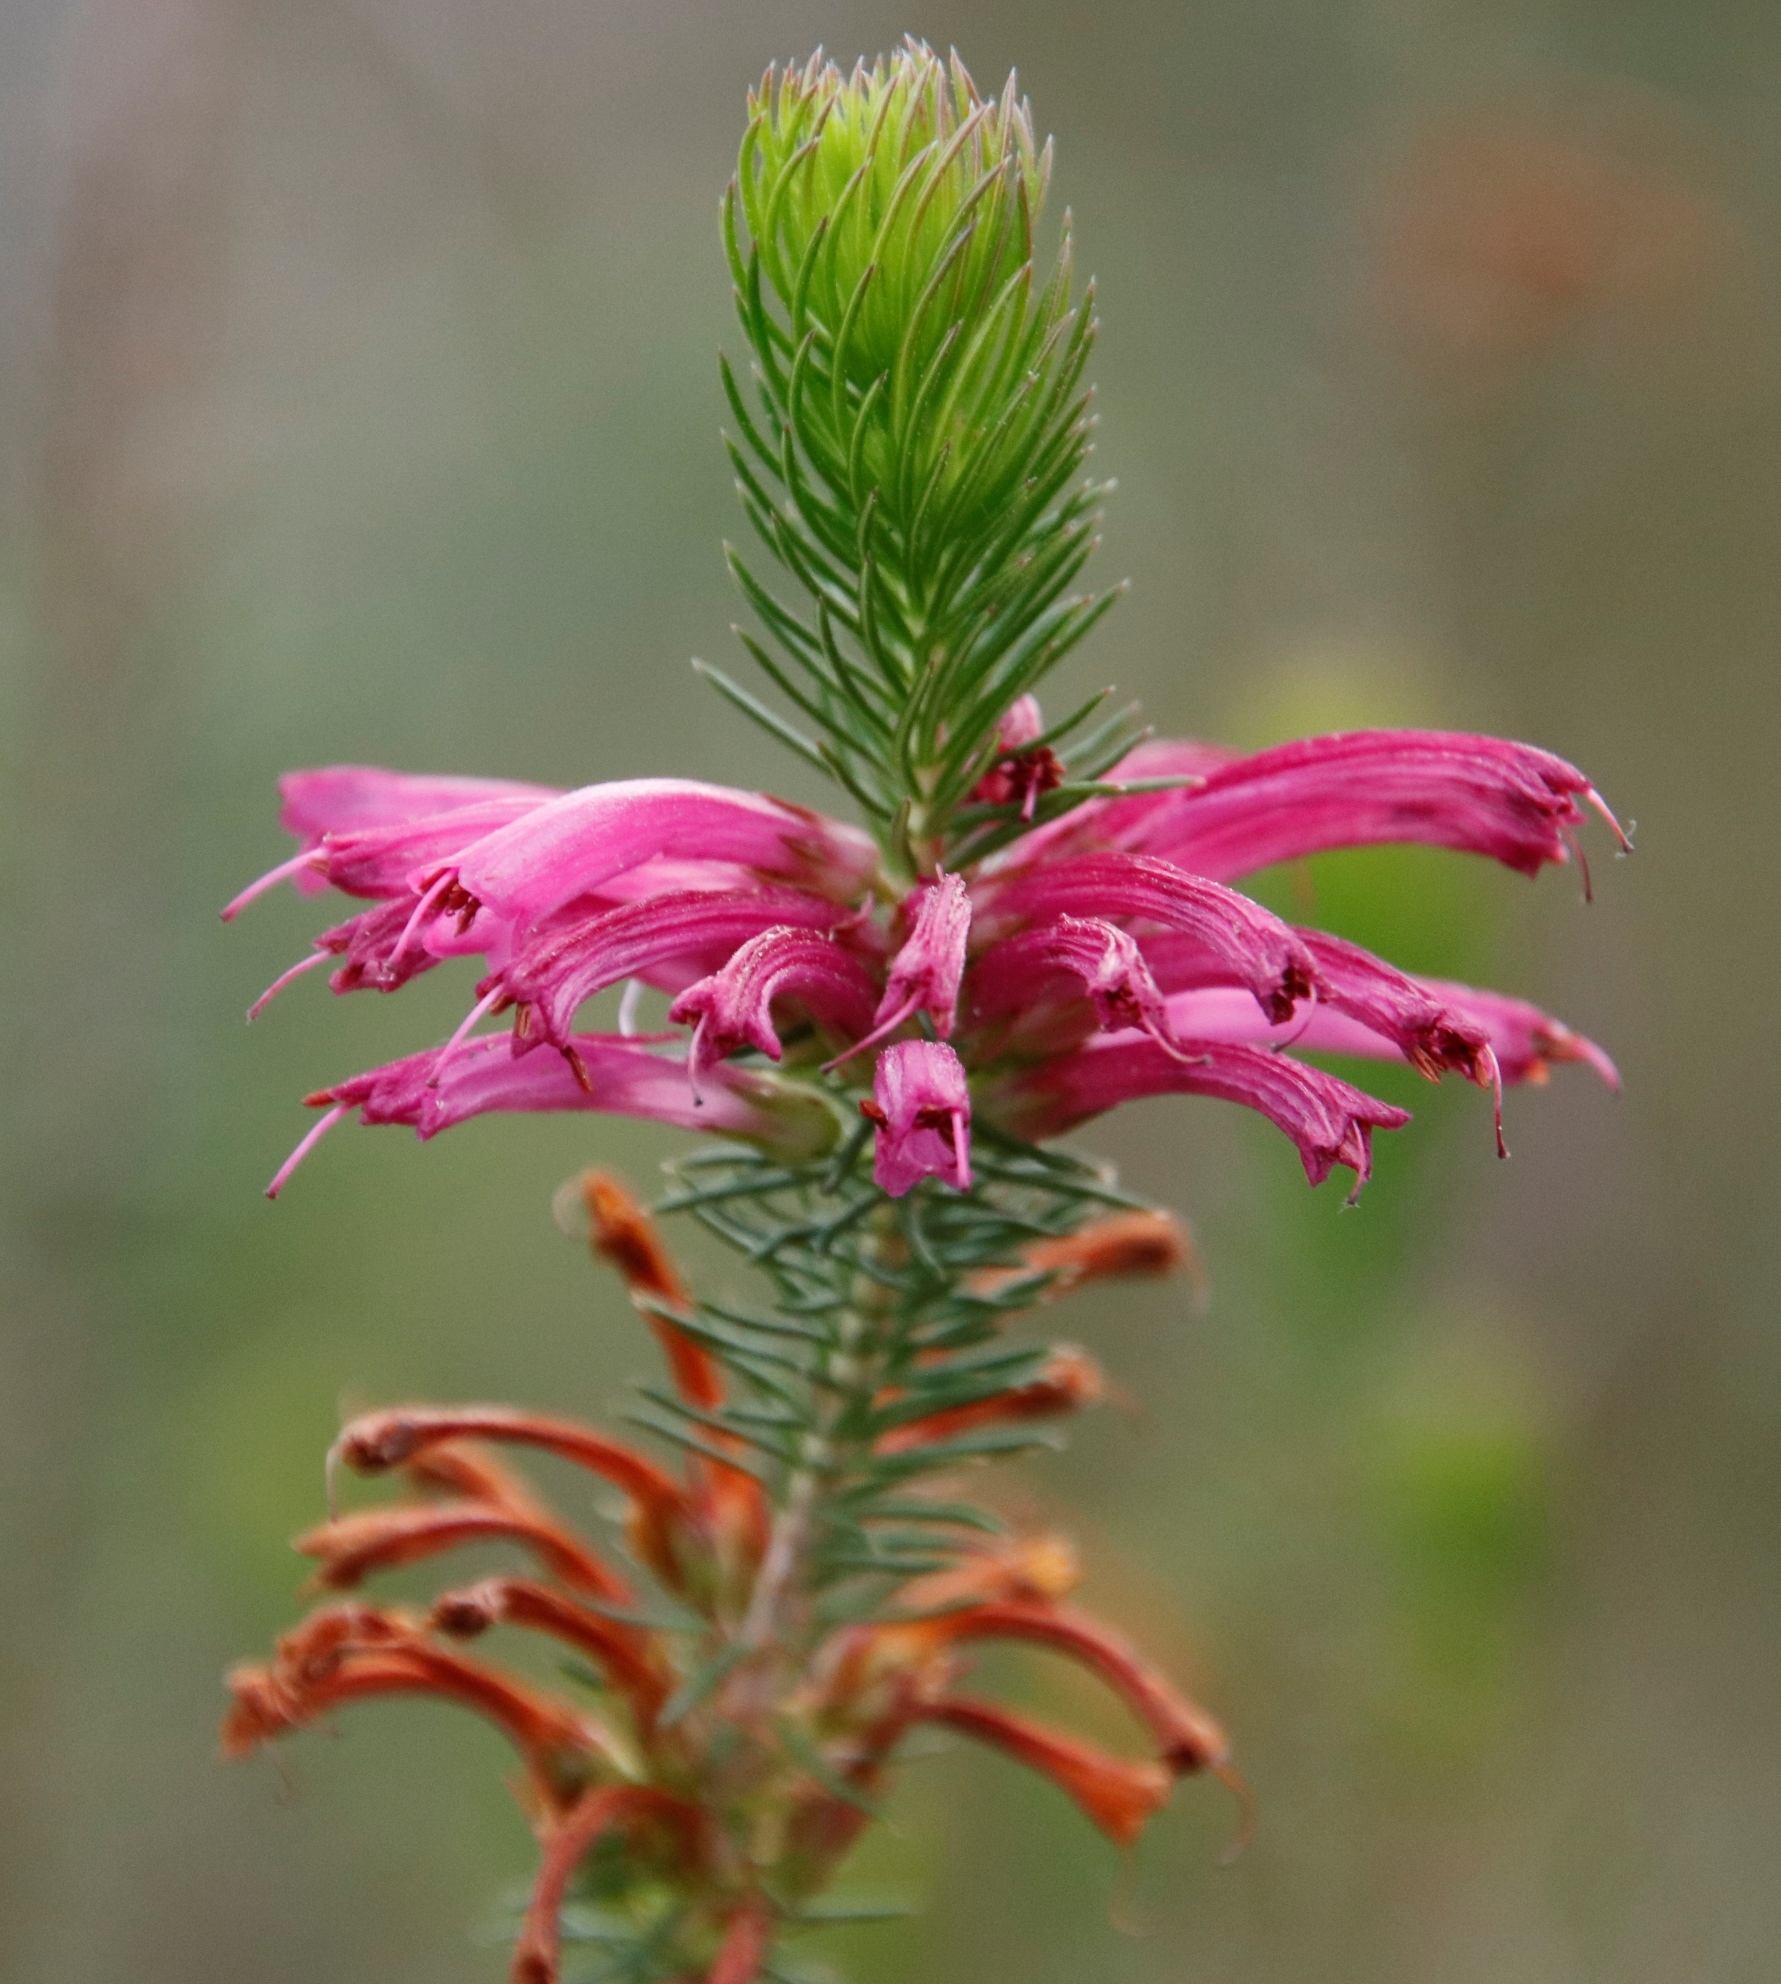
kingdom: Plantae
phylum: Tracheophyta
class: Magnoliopsida
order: Ericales
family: Ericaceae
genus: Erica
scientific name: Erica abietina
